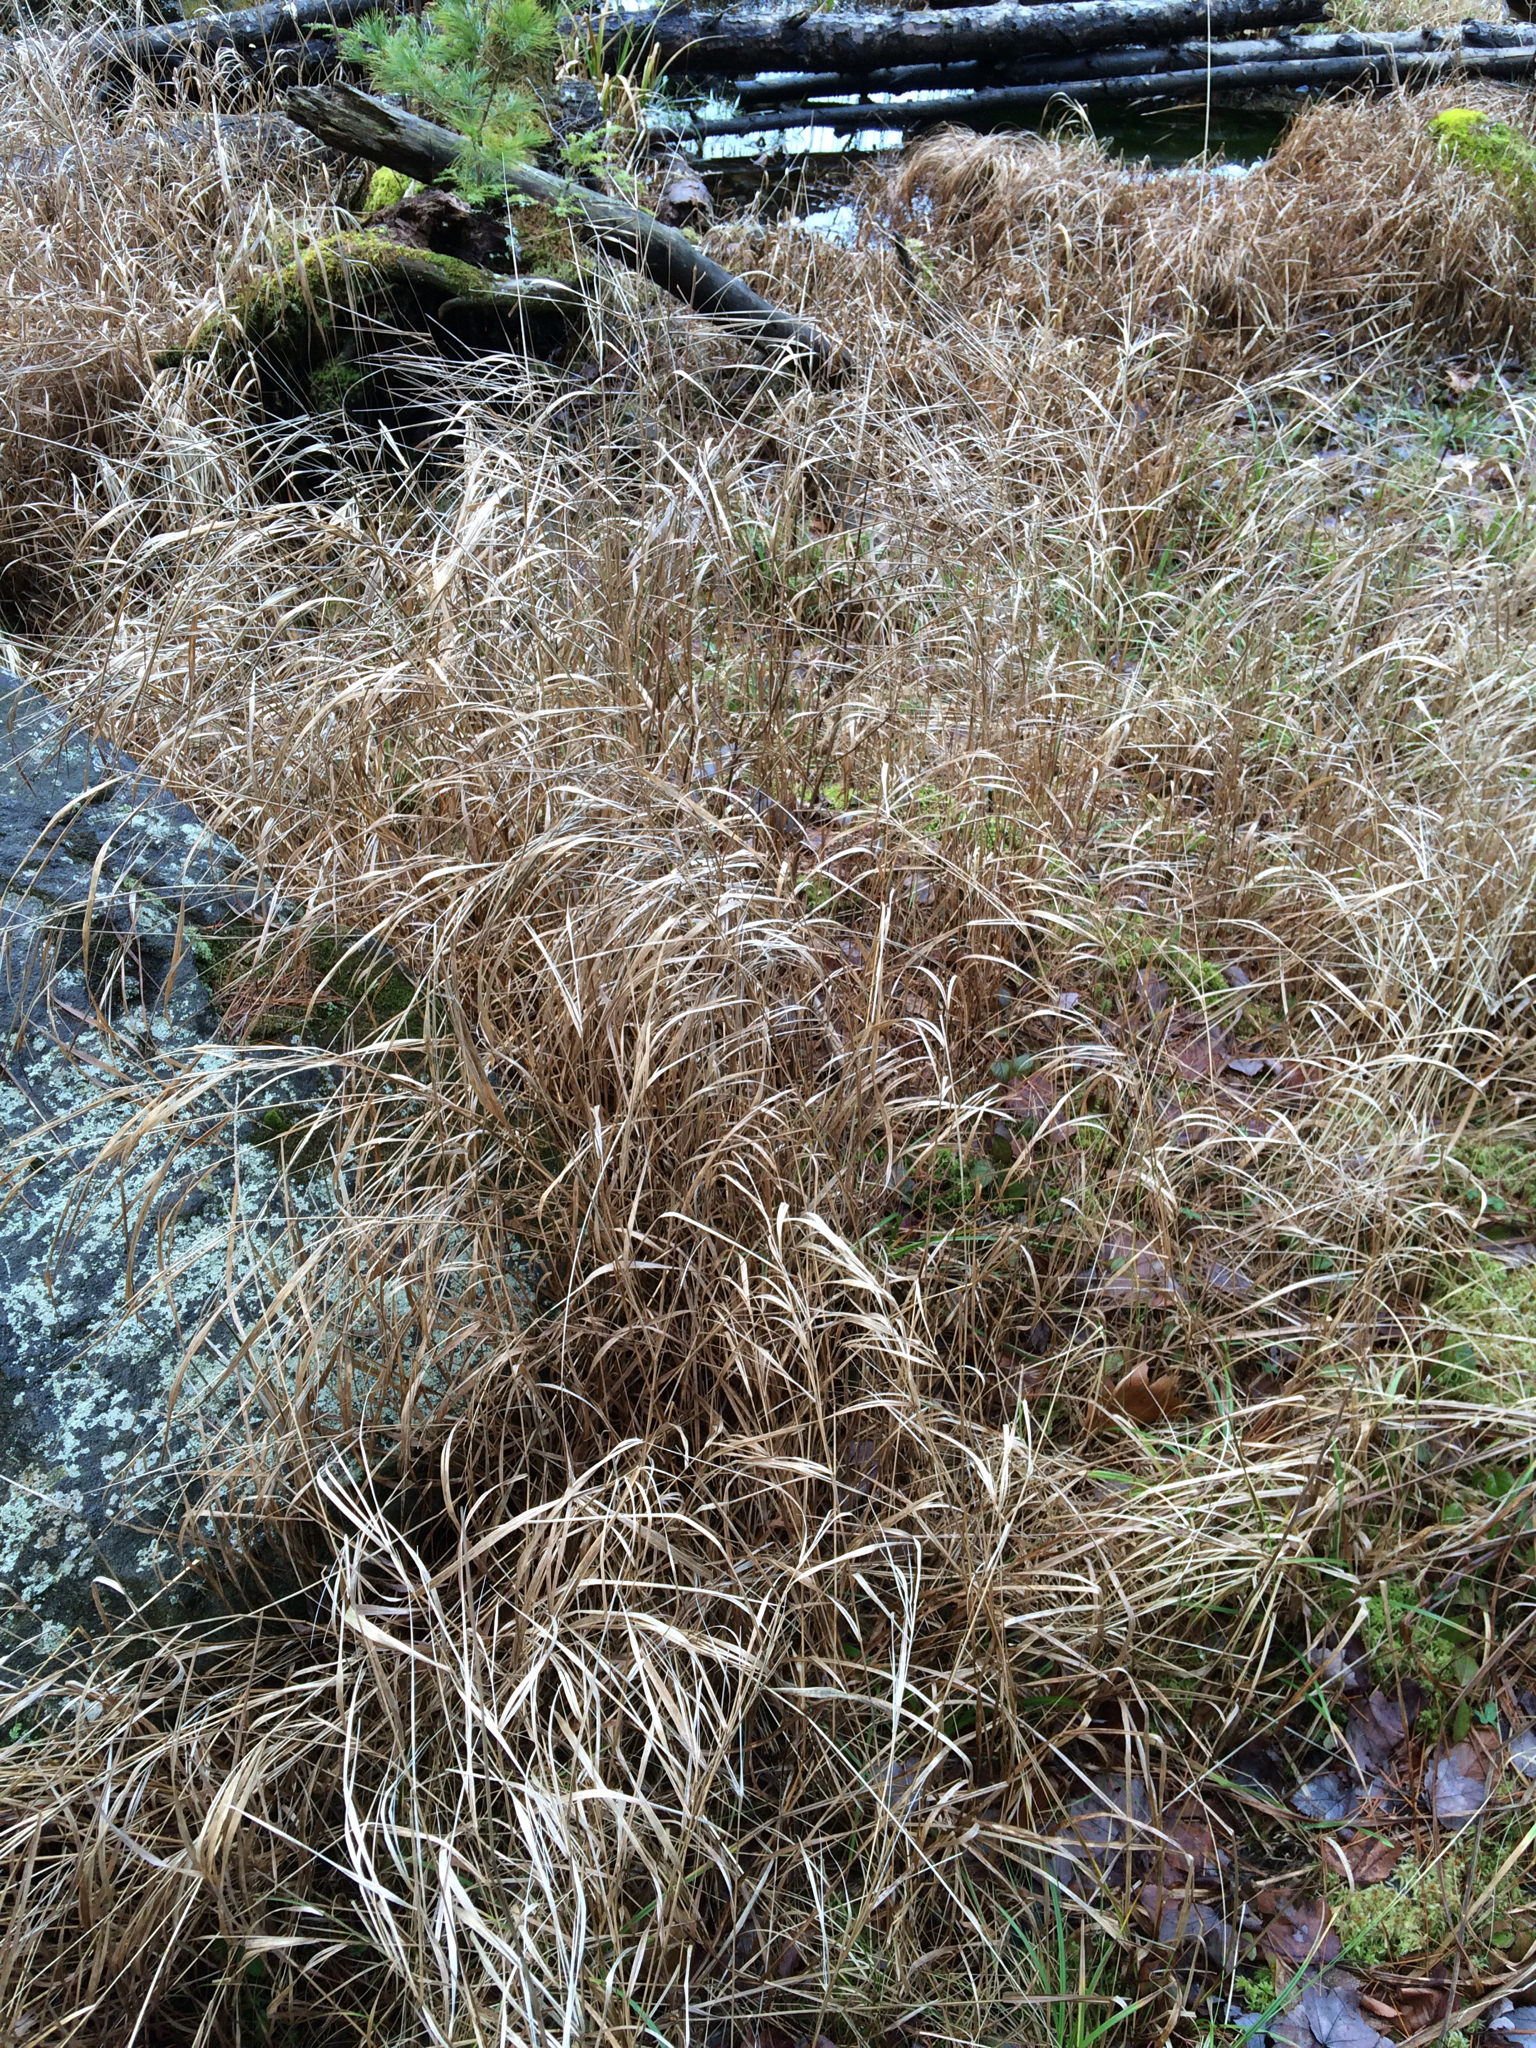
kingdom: Plantae
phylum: Tracheophyta
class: Liliopsida
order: Poales
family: Poaceae
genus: Phalaris
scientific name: Phalaris arundinacea
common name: Reed canary-grass
